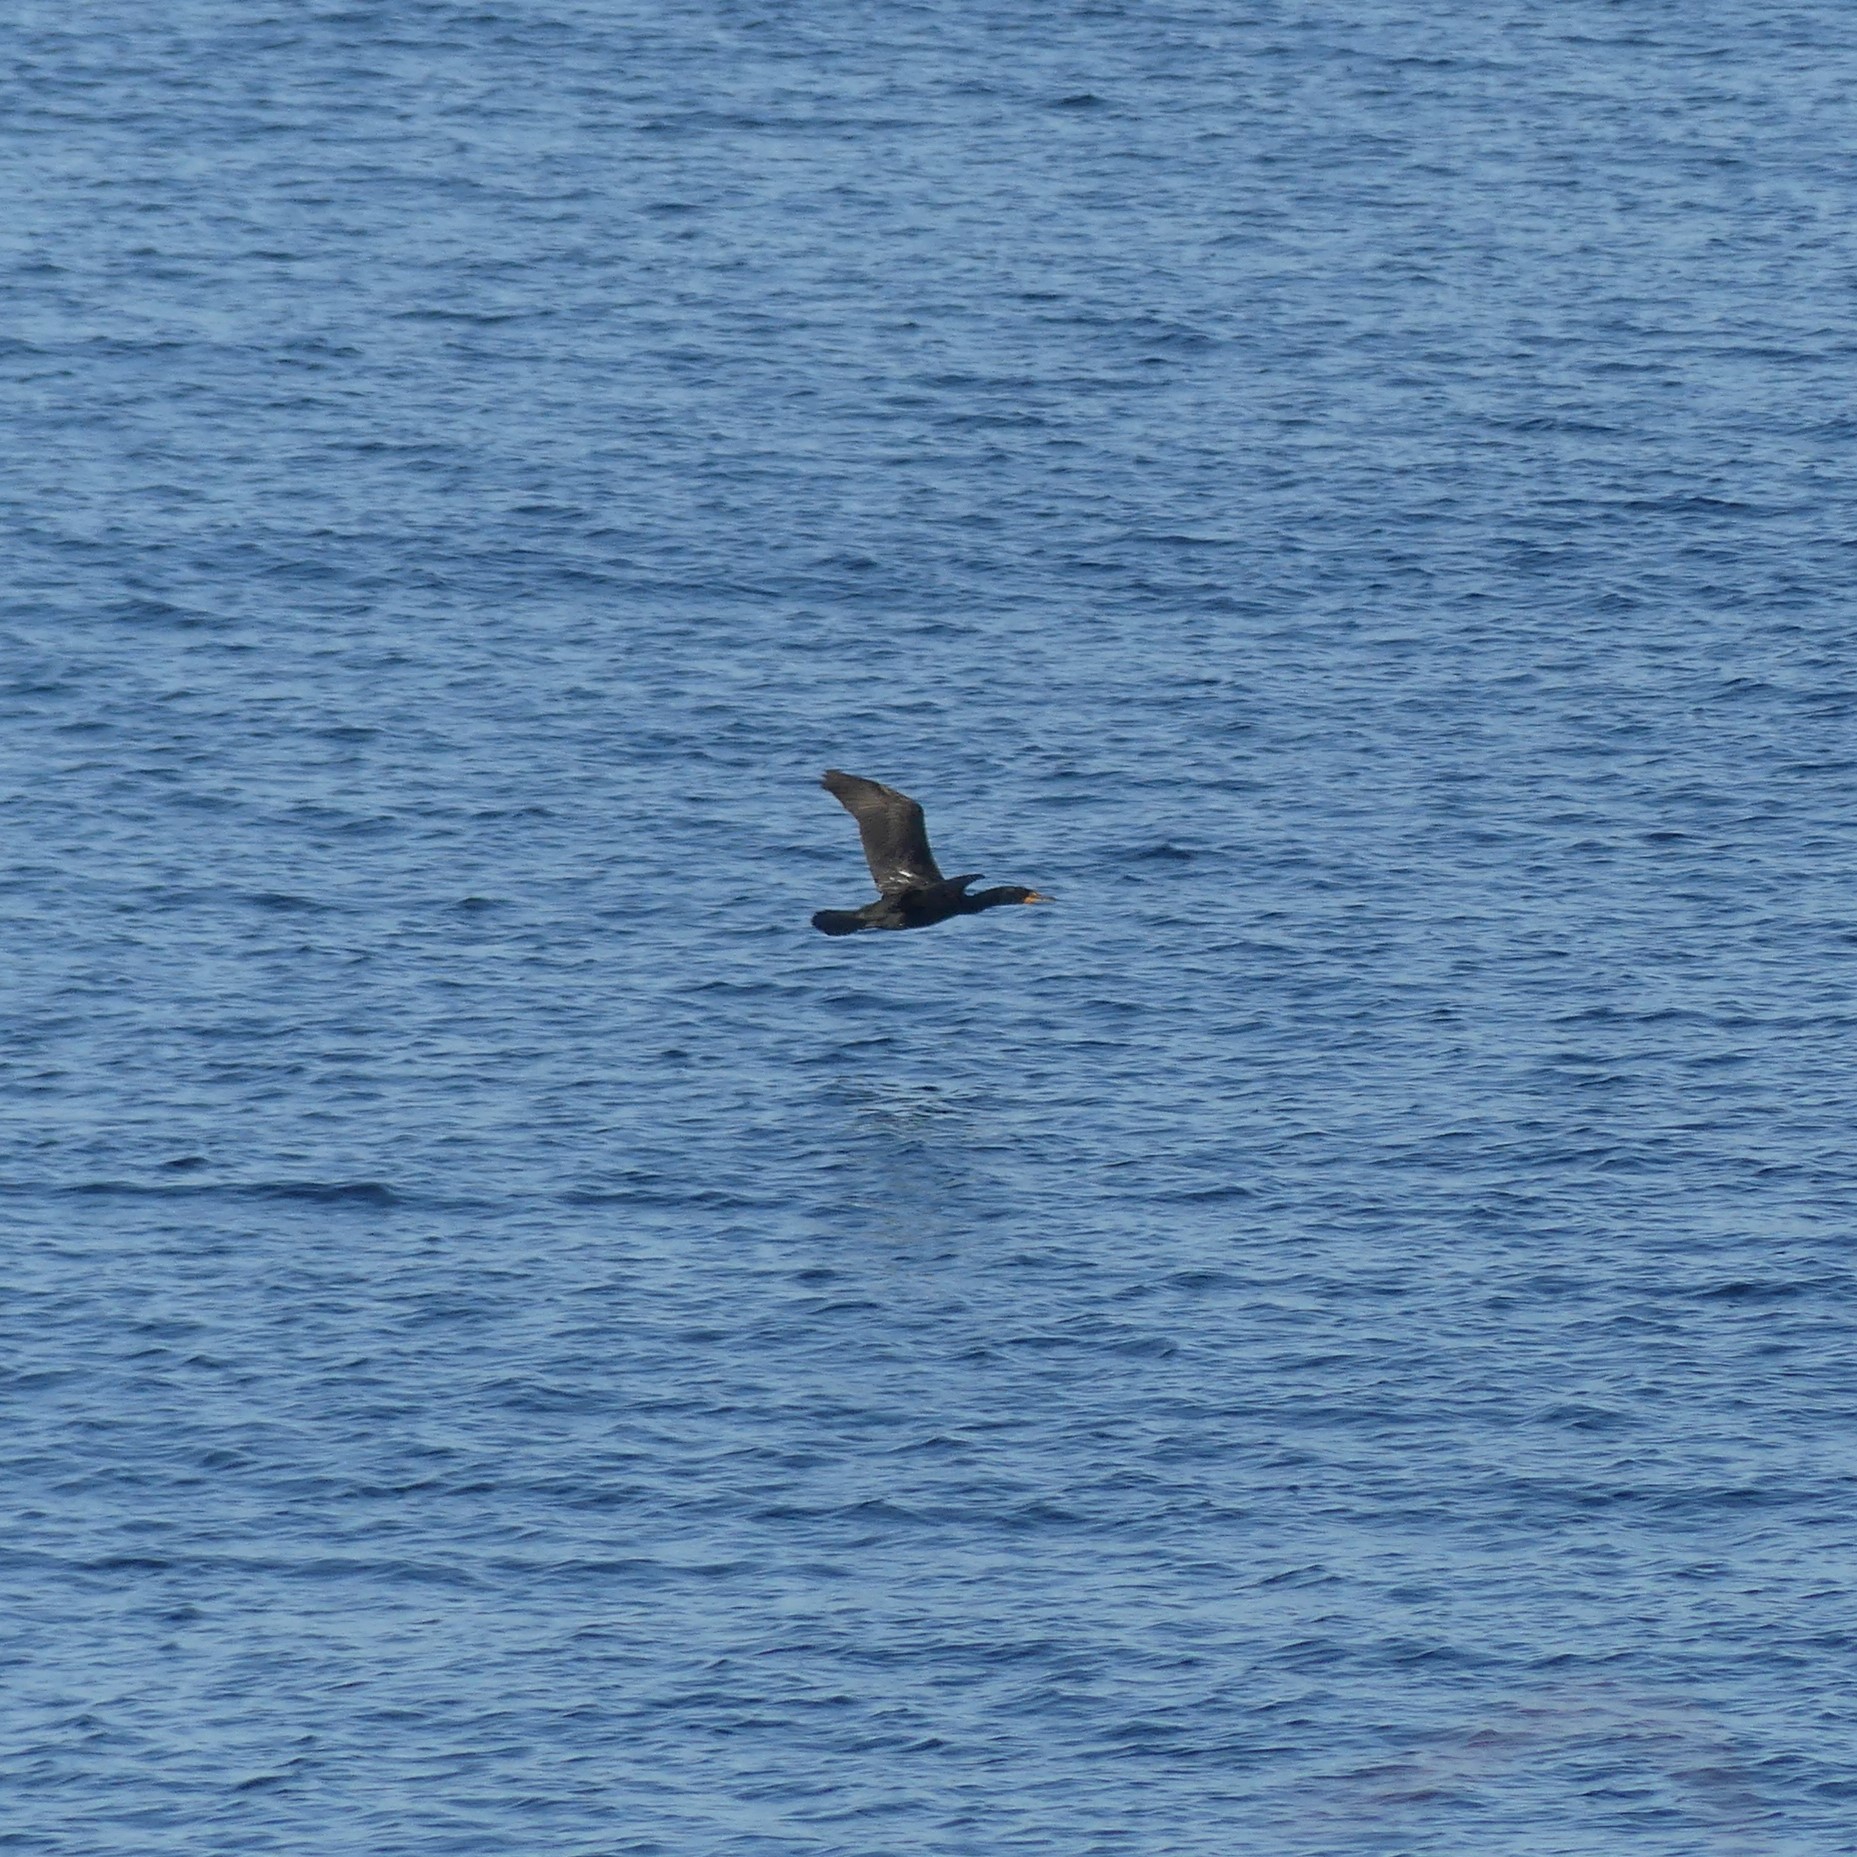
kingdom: Animalia
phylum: Chordata
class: Aves
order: Suliformes
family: Phalacrocoracidae
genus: Phalacrocorax
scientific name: Phalacrocorax auritus
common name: Double-crested cormorant
